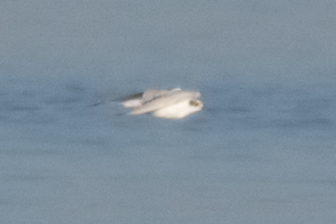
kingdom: Animalia
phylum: Chordata
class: Aves
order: Charadriiformes
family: Laridae
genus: Sterna
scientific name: Sterna forsteri
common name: Forster's tern
